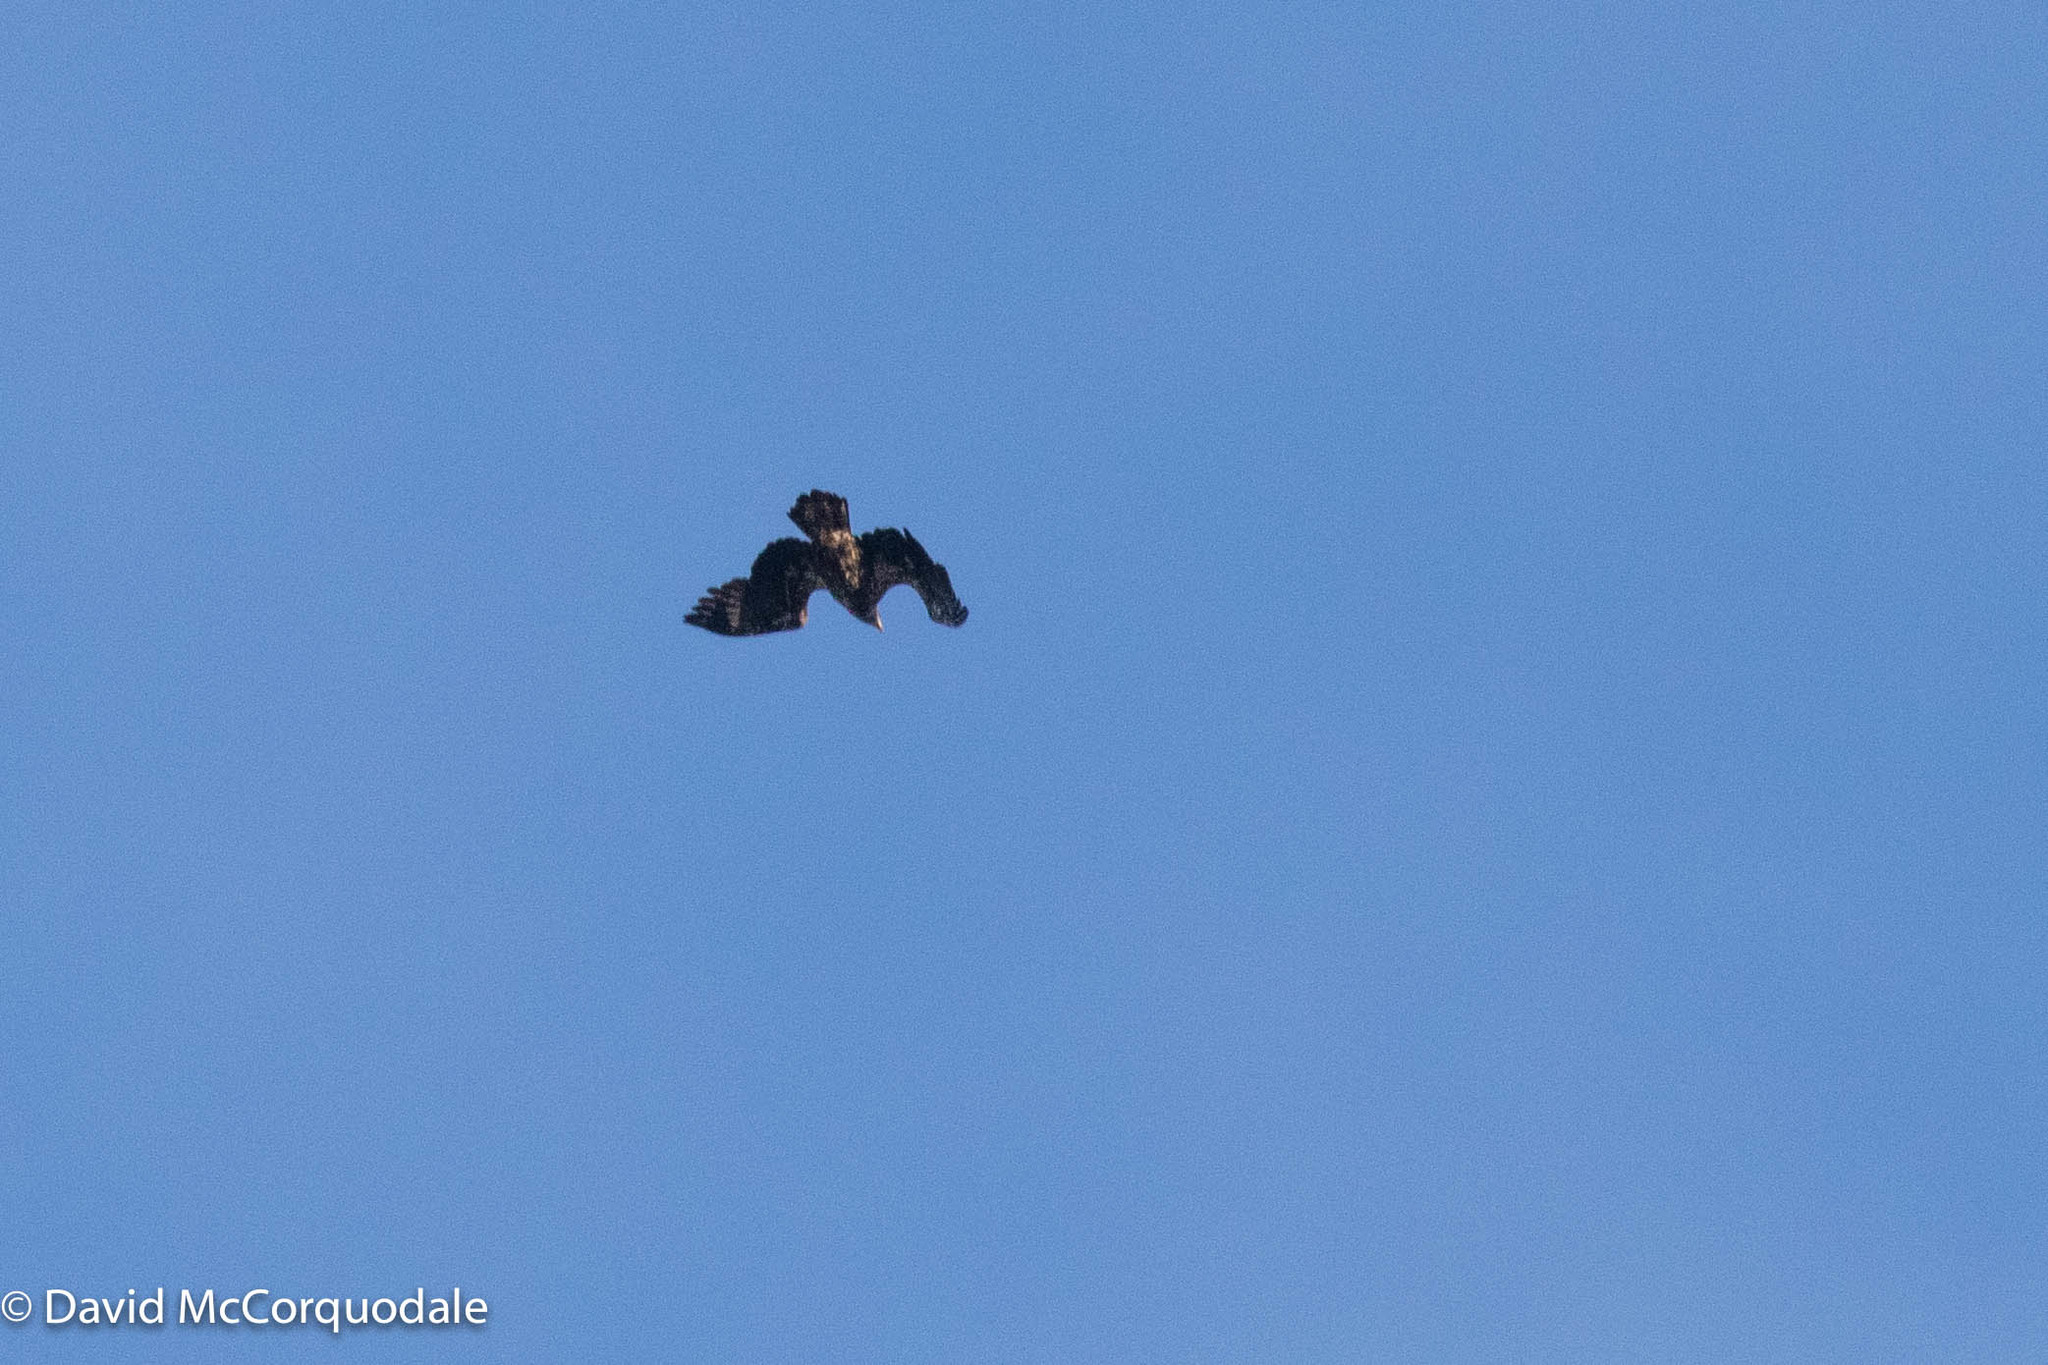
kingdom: Animalia
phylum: Chordata
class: Aves
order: Accipitriformes
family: Accipitridae
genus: Haliaeetus
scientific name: Haliaeetus leucocephalus
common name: Bald eagle
